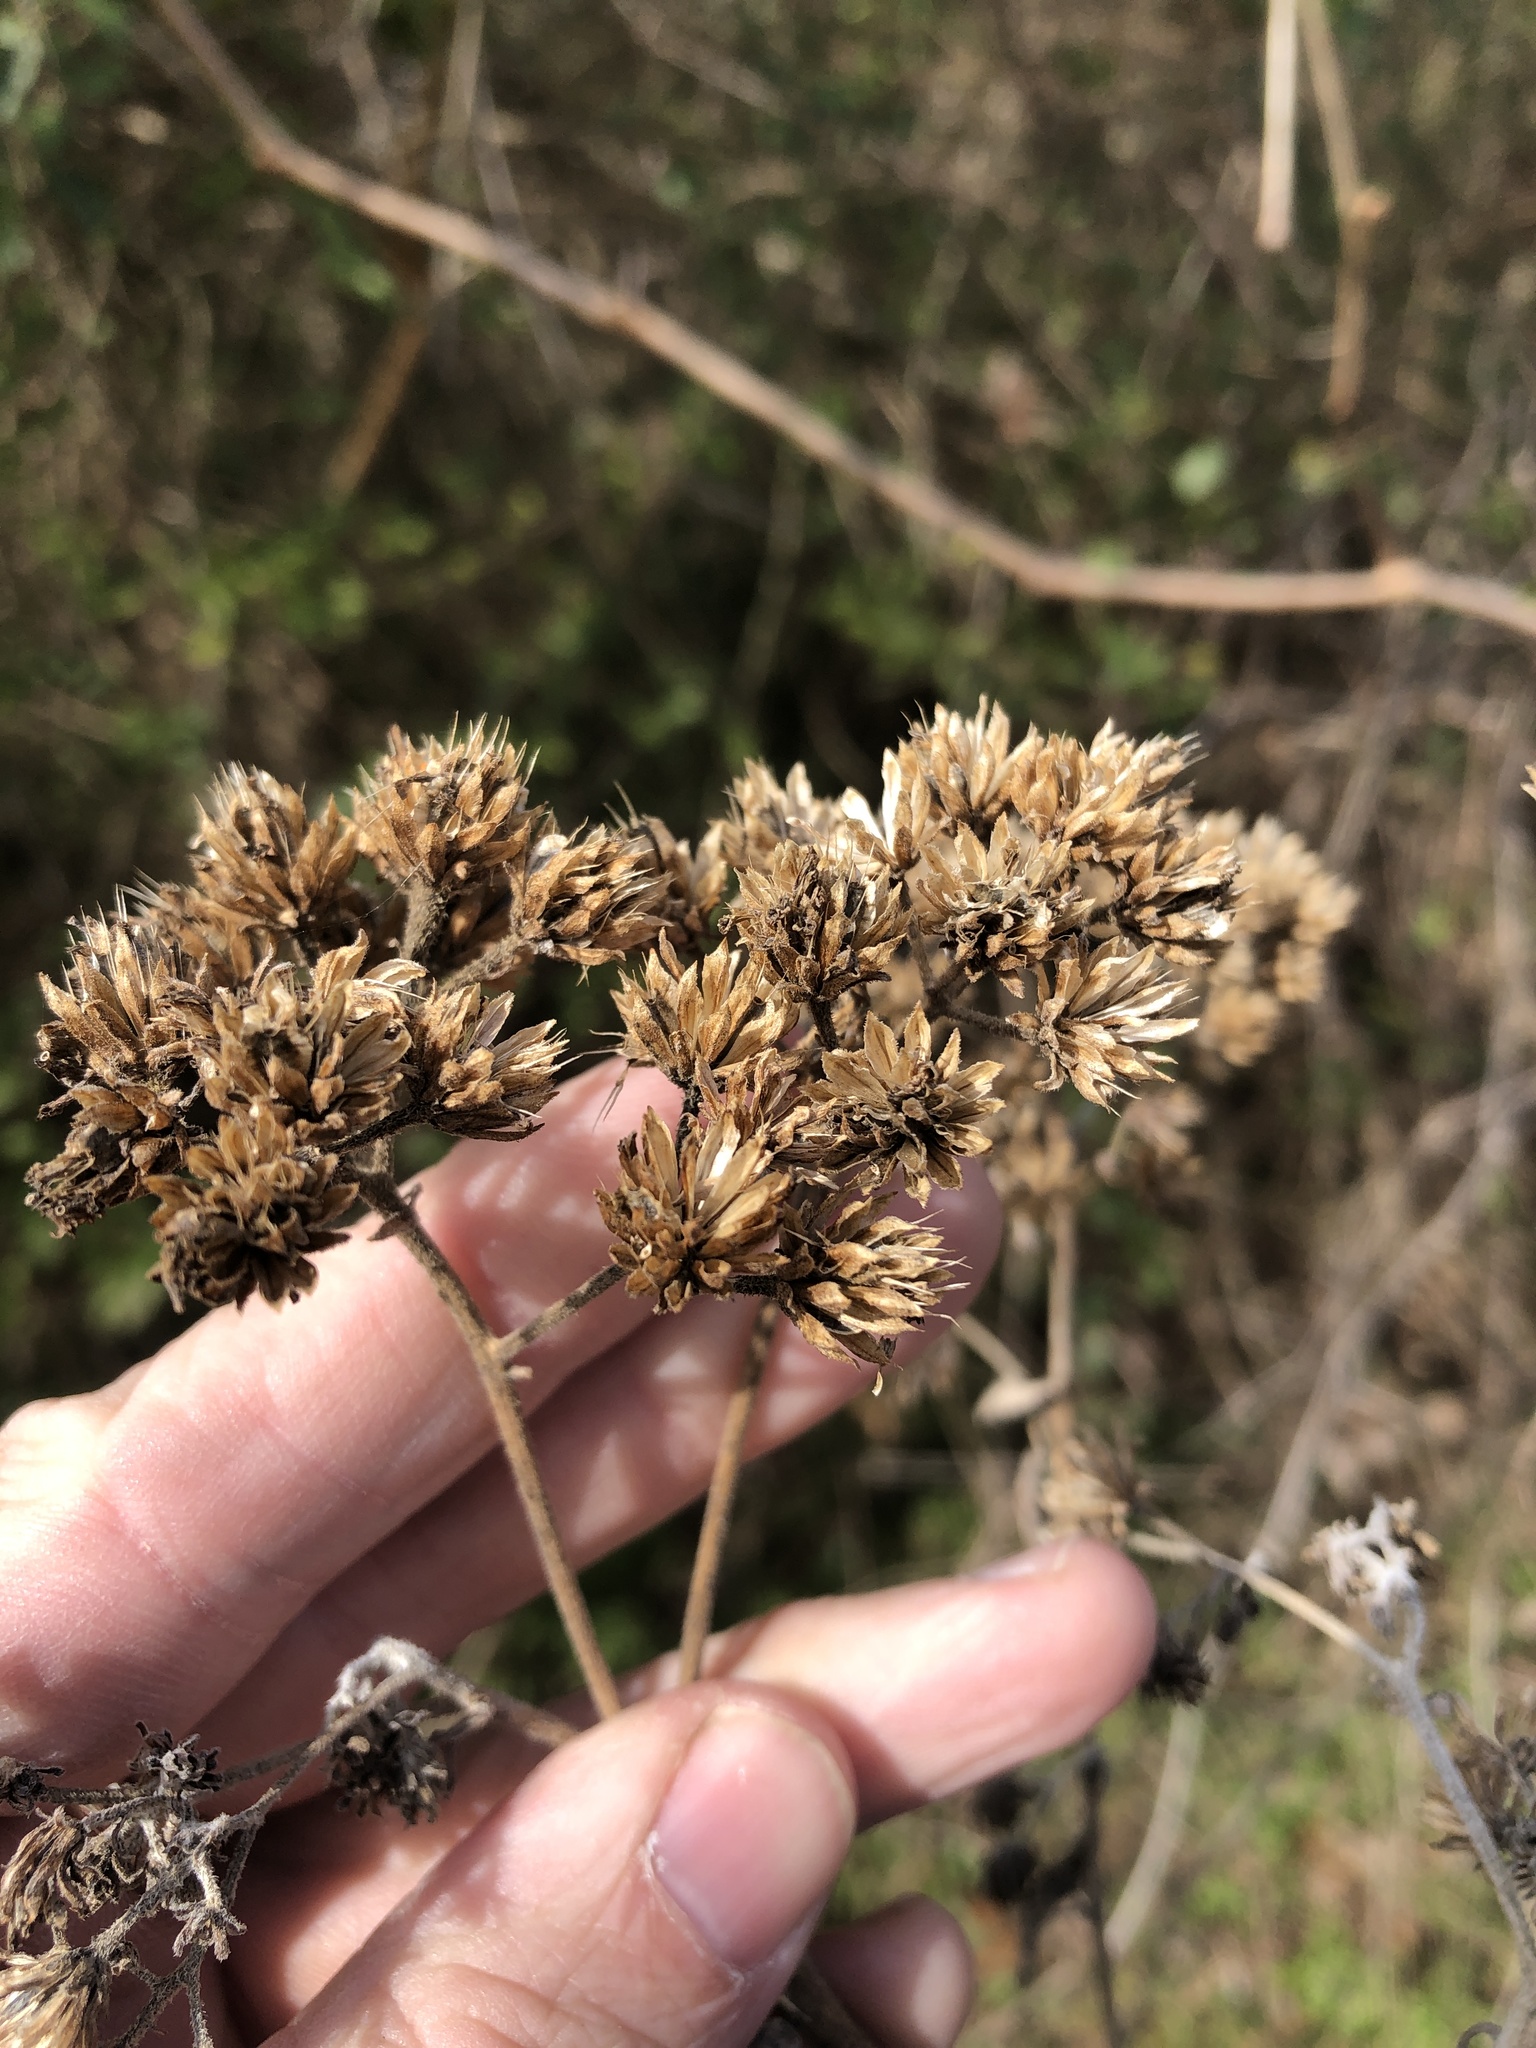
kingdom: Plantae
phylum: Tracheophyta
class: Magnoliopsida
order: Asterales
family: Asteraceae
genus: Verbesina
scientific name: Verbesina virginica
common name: Frostweed
